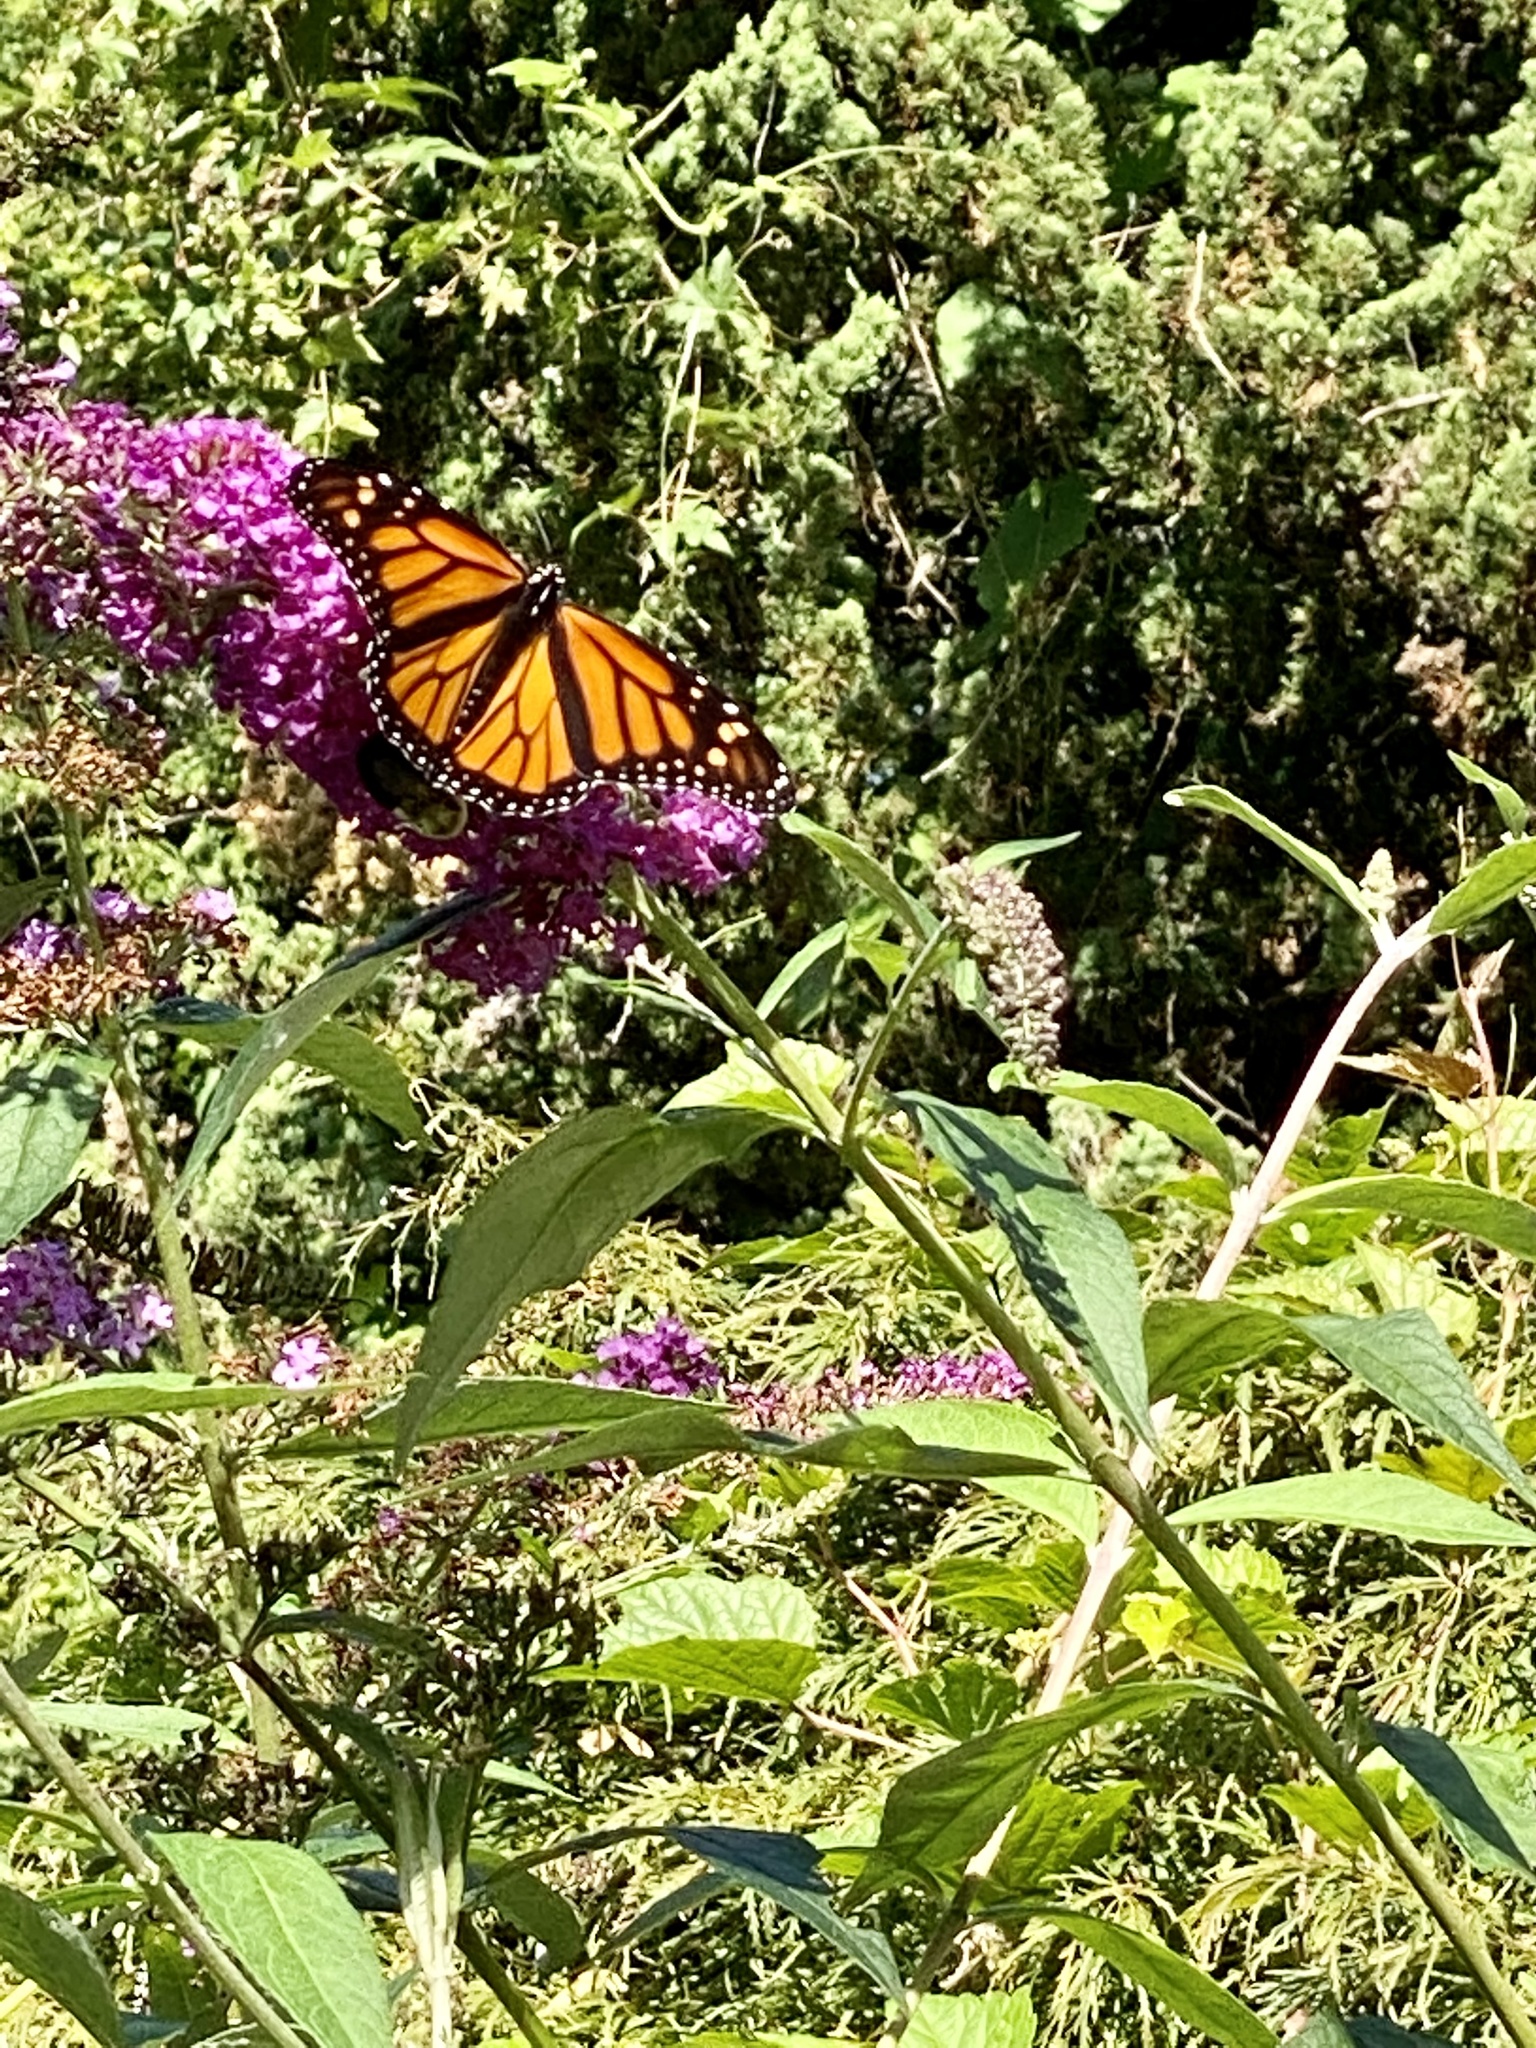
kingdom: Animalia
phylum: Arthropoda
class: Insecta
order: Lepidoptera
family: Nymphalidae
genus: Danaus
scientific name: Danaus plexippus
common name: Monarch
